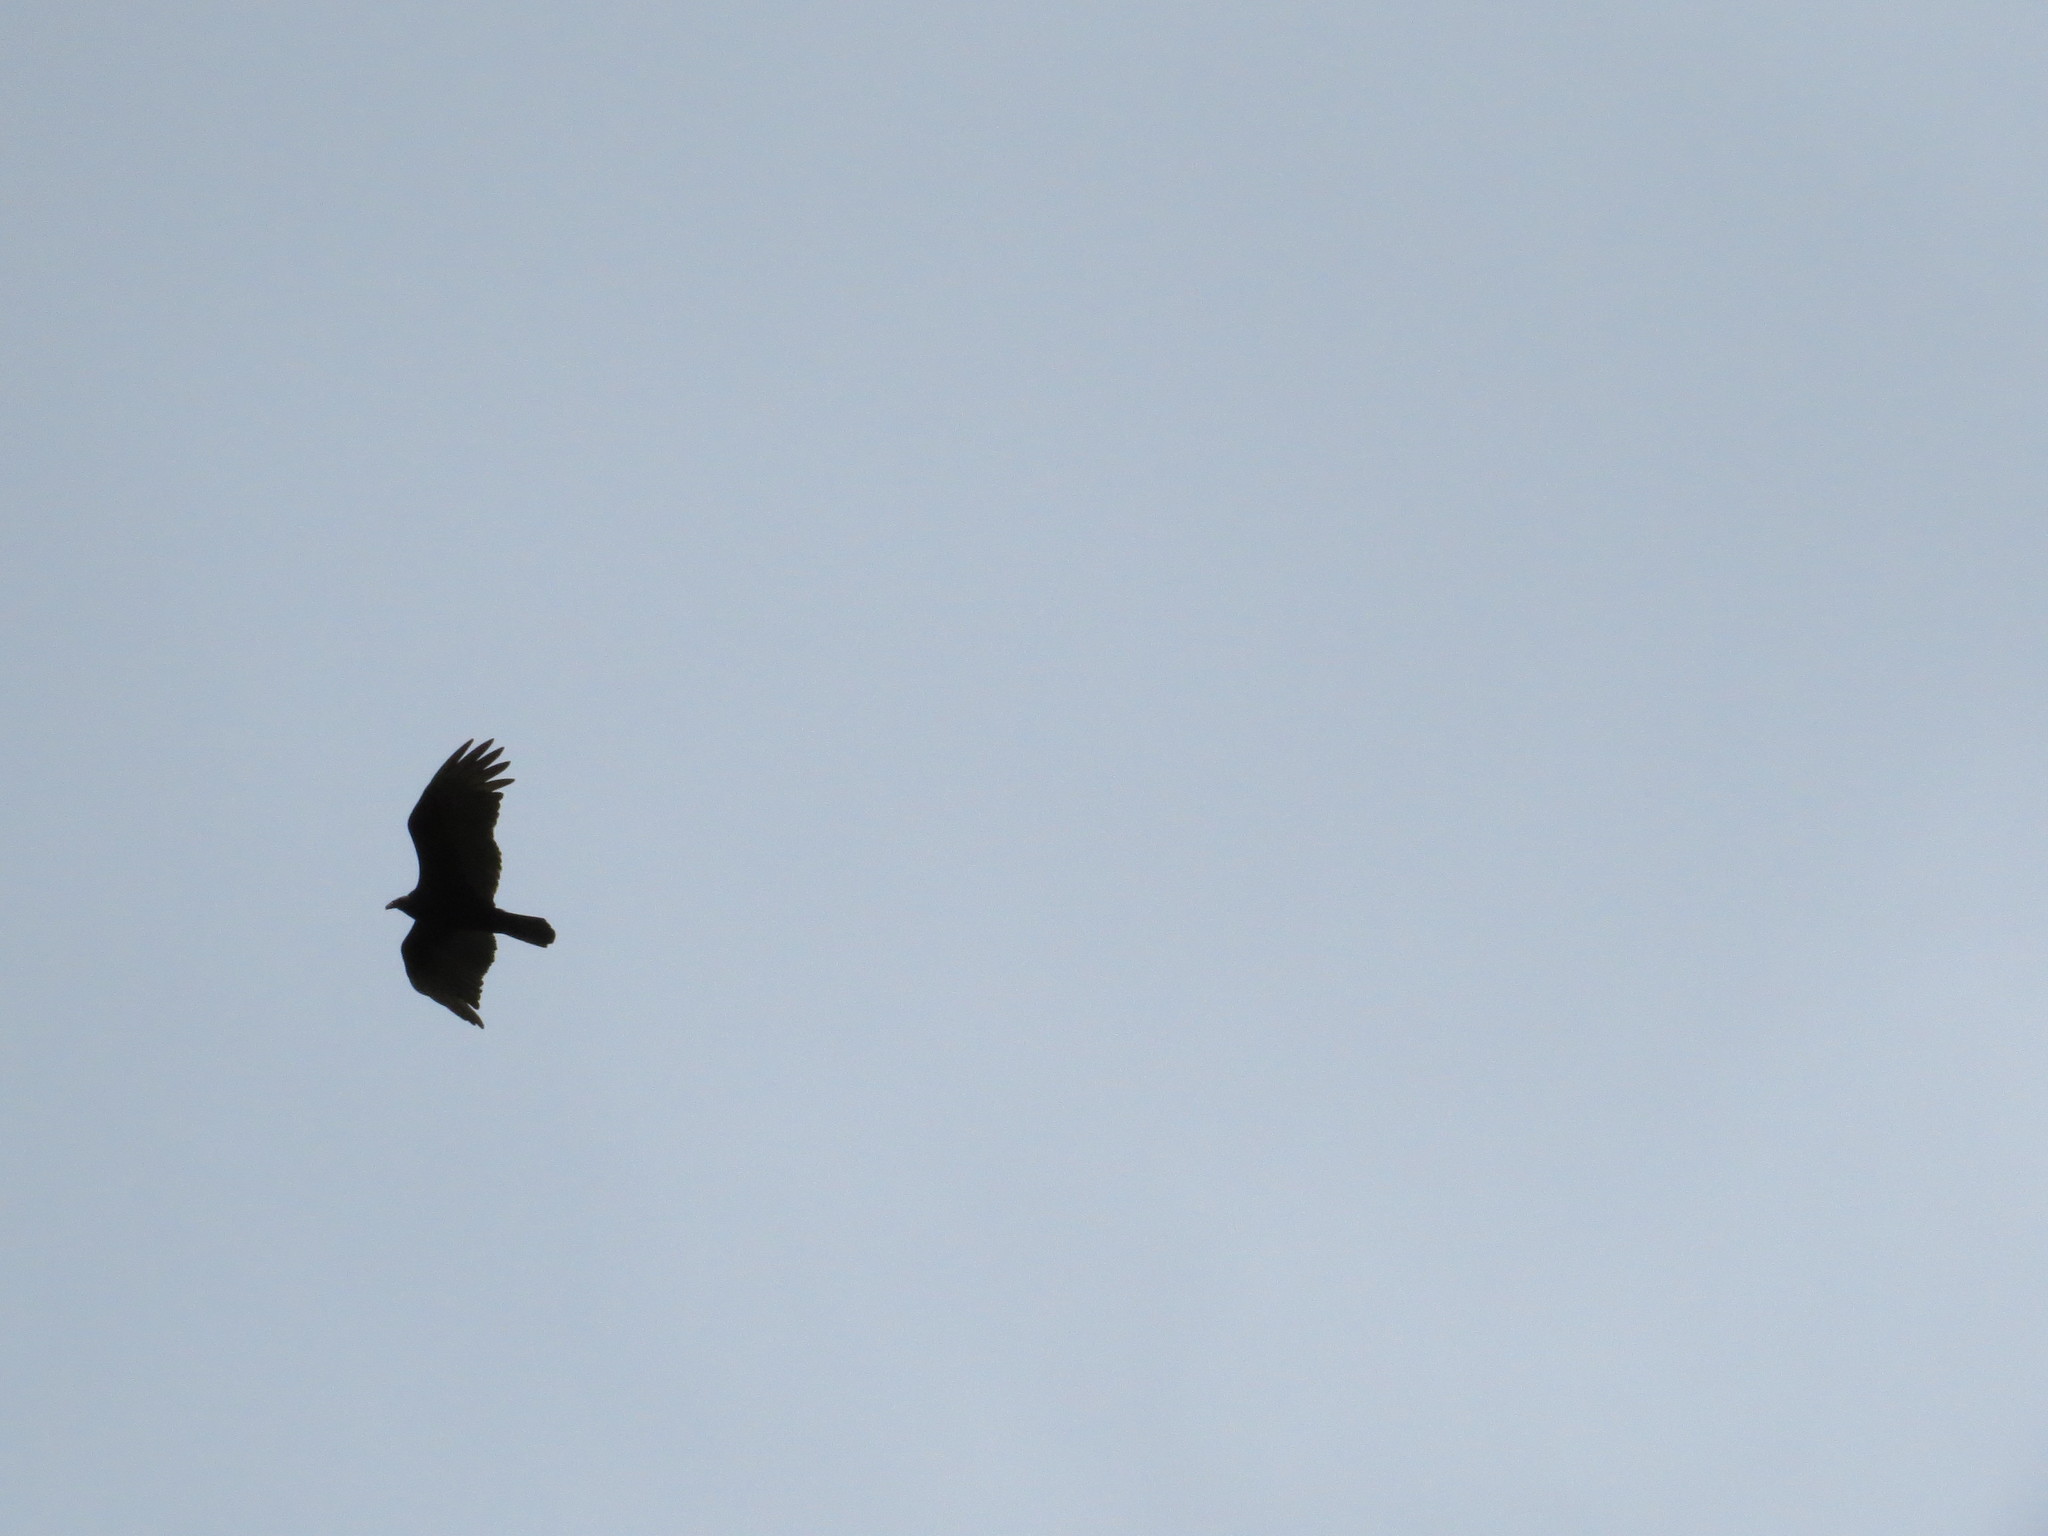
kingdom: Animalia
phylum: Chordata
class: Aves
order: Accipitriformes
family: Cathartidae
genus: Cathartes
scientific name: Cathartes aura
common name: Turkey vulture
